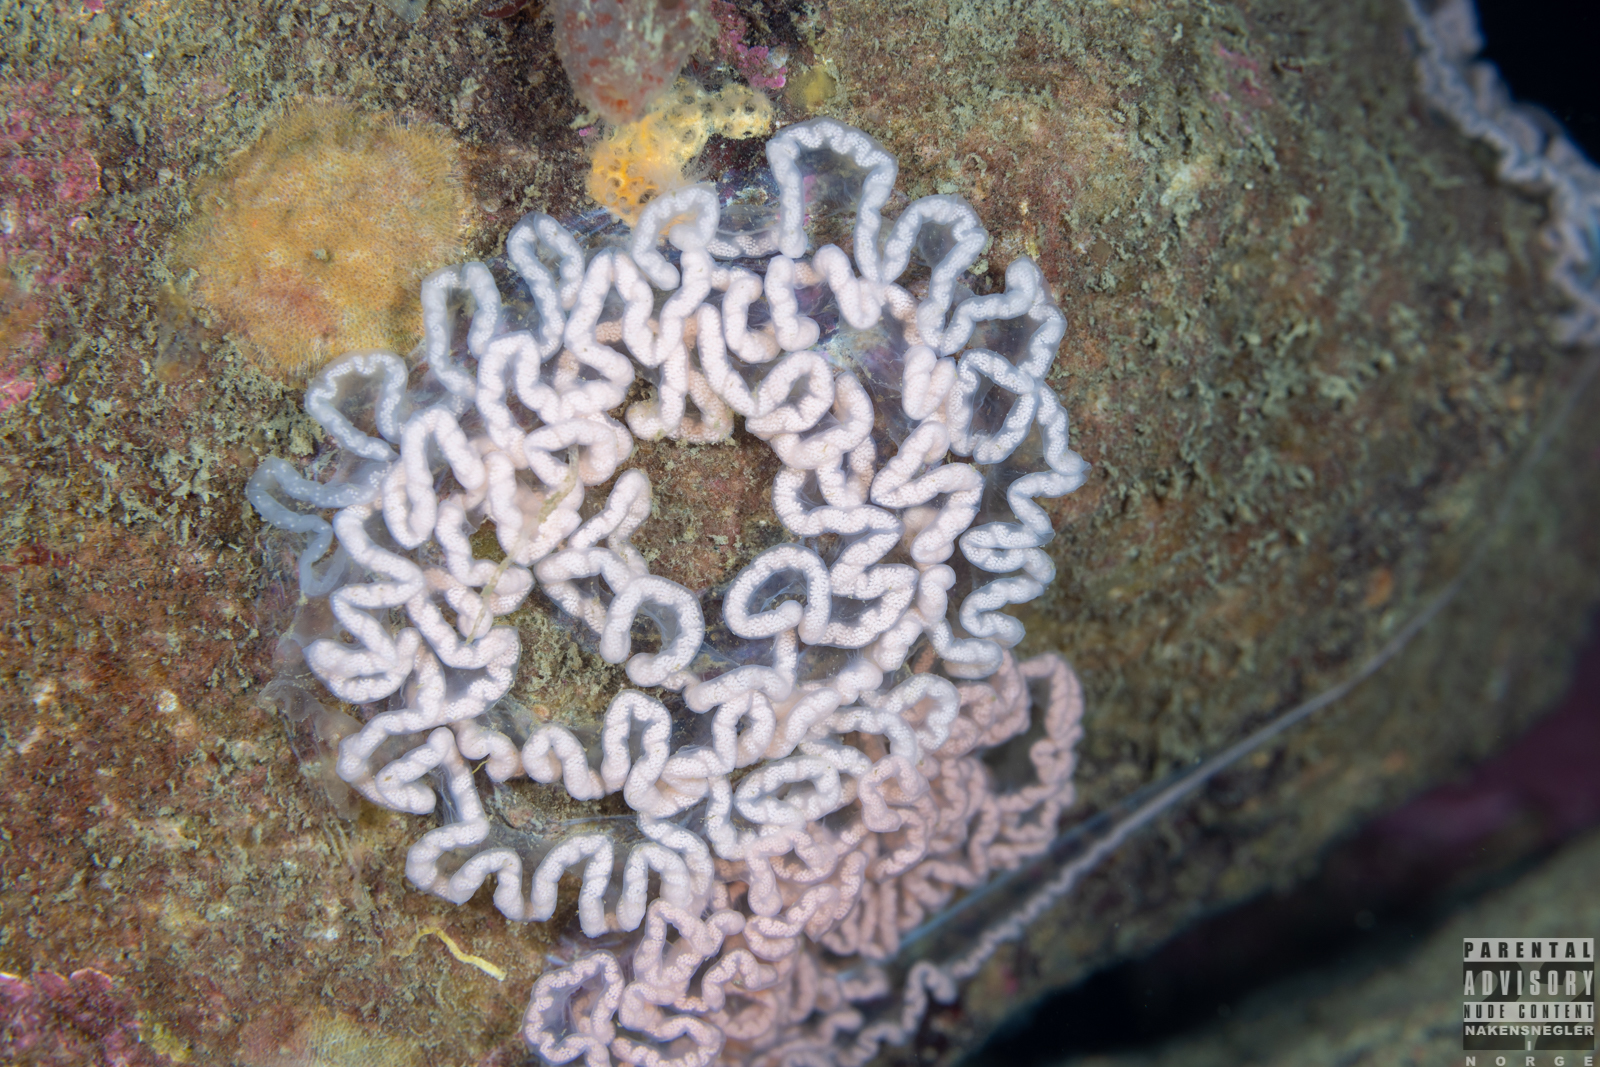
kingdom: Animalia
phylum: Mollusca
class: Gastropoda
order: Nudibranchia
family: Tritoniidae
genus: Tritonia
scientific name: Tritonia hombergii
